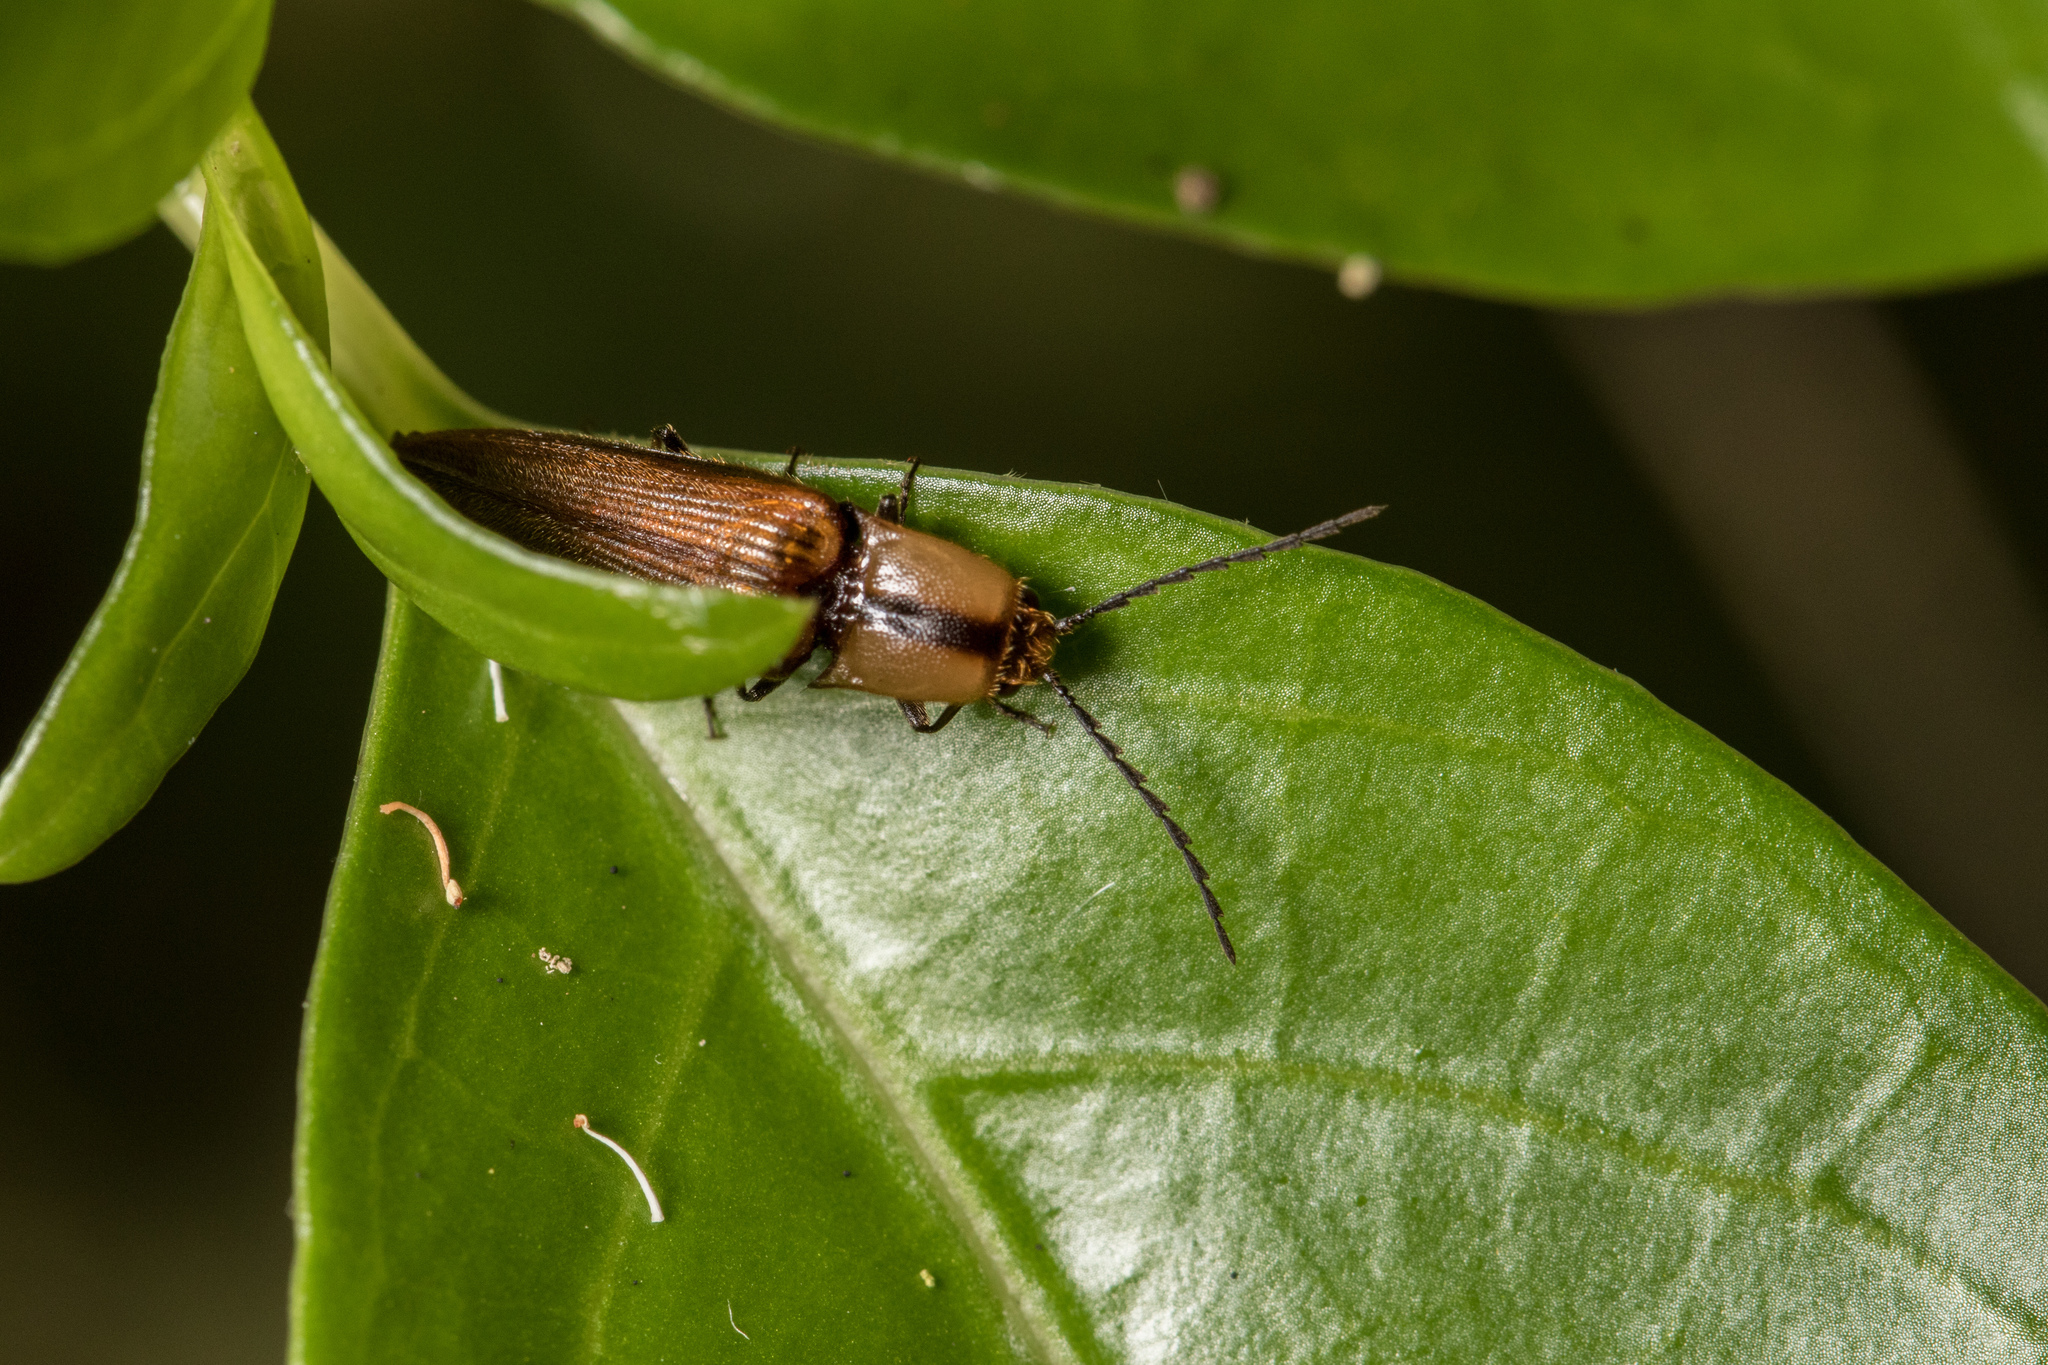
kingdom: Animalia
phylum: Arthropoda
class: Insecta
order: Coleoptera
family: Elateridae
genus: Sphaenelater
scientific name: Sphaenelater
